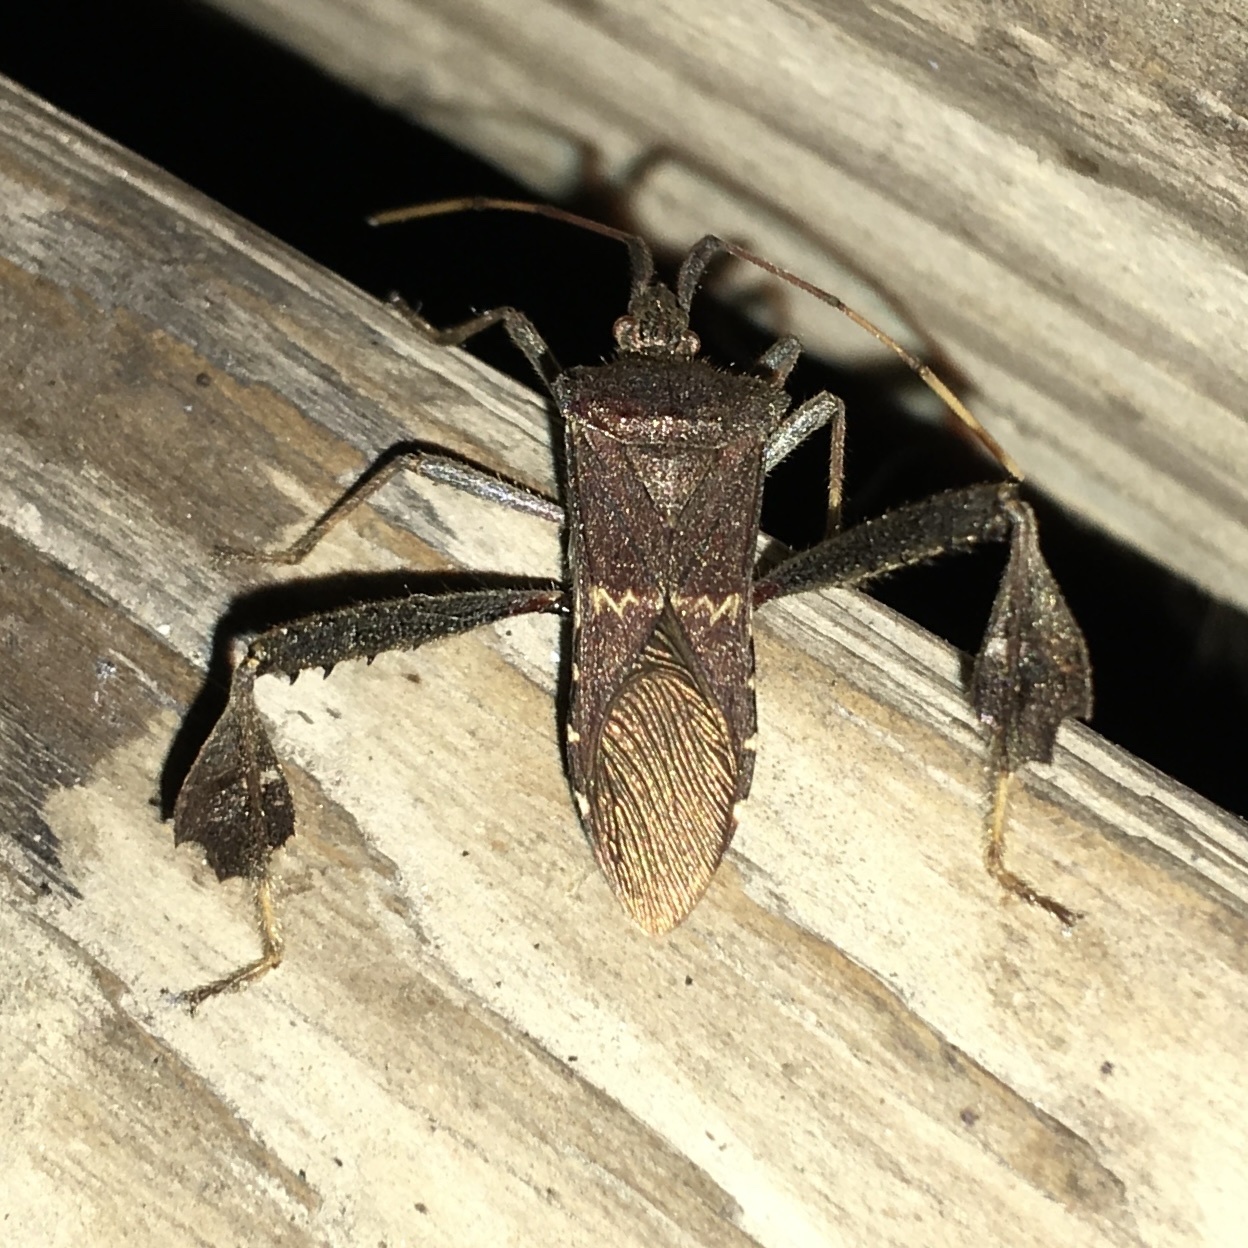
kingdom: Animalia
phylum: Arthropoda
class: Insecta
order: Hemiptera
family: Coreidae
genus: Leptoglossus
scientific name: Leptoglossus zonatus
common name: Large-legged bug
